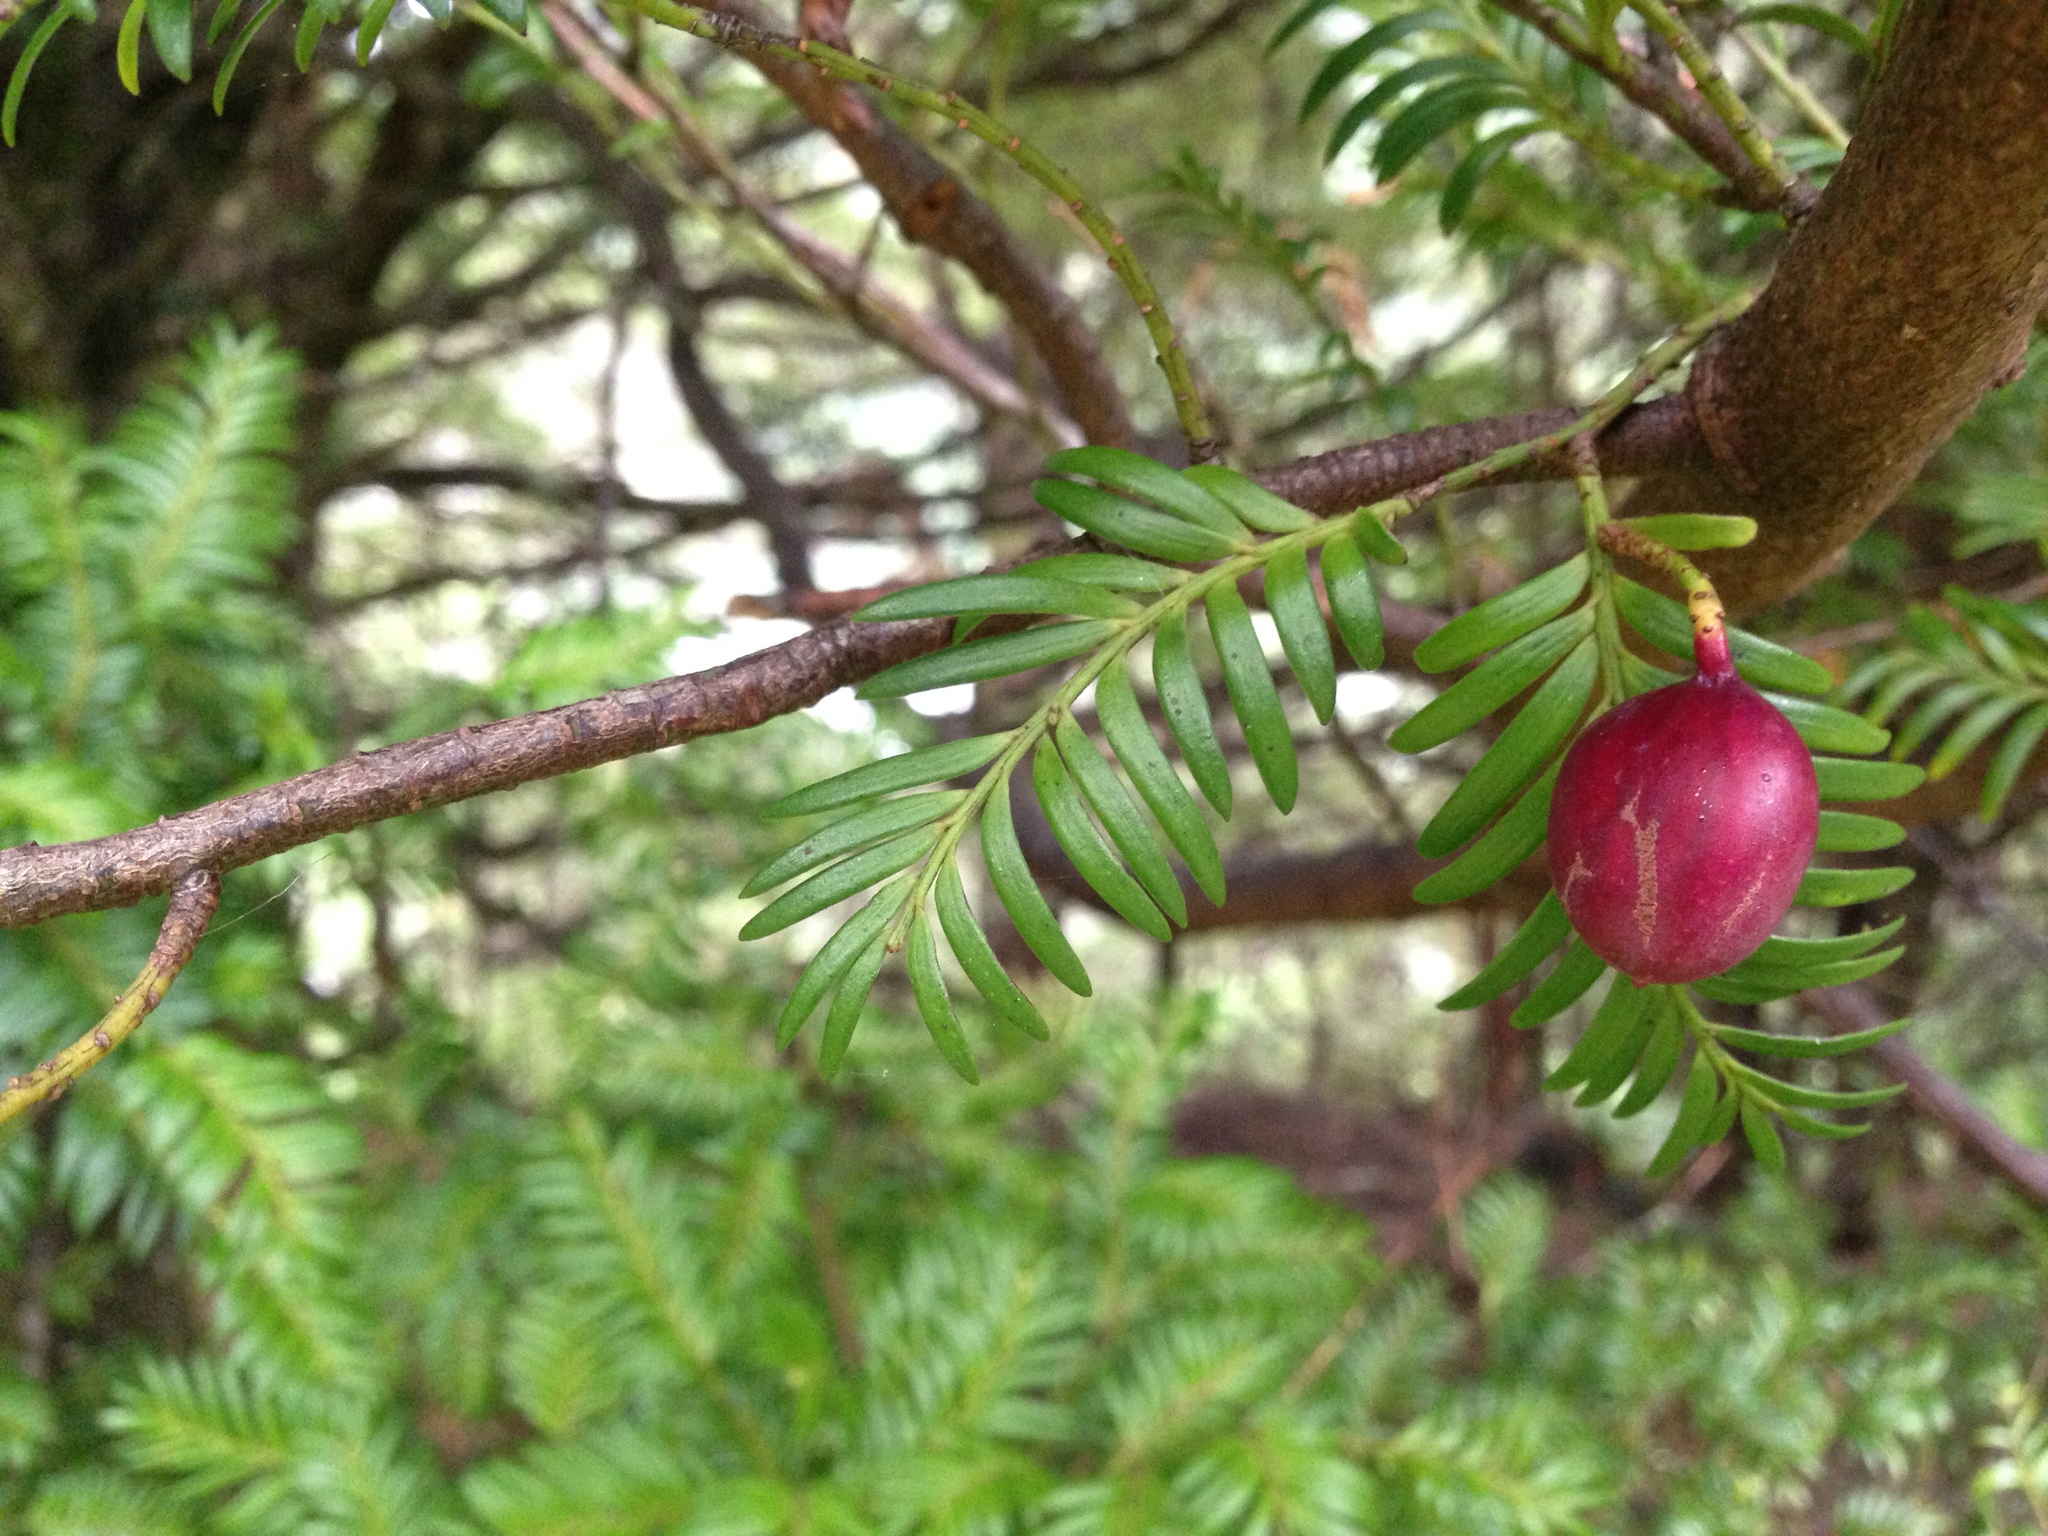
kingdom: Plantae
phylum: Tracheophyta
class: Pinopsida
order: Pinales
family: Podocarpaceae
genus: Prumnopitys
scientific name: Prumnopitys ferruginea
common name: Brown pine
